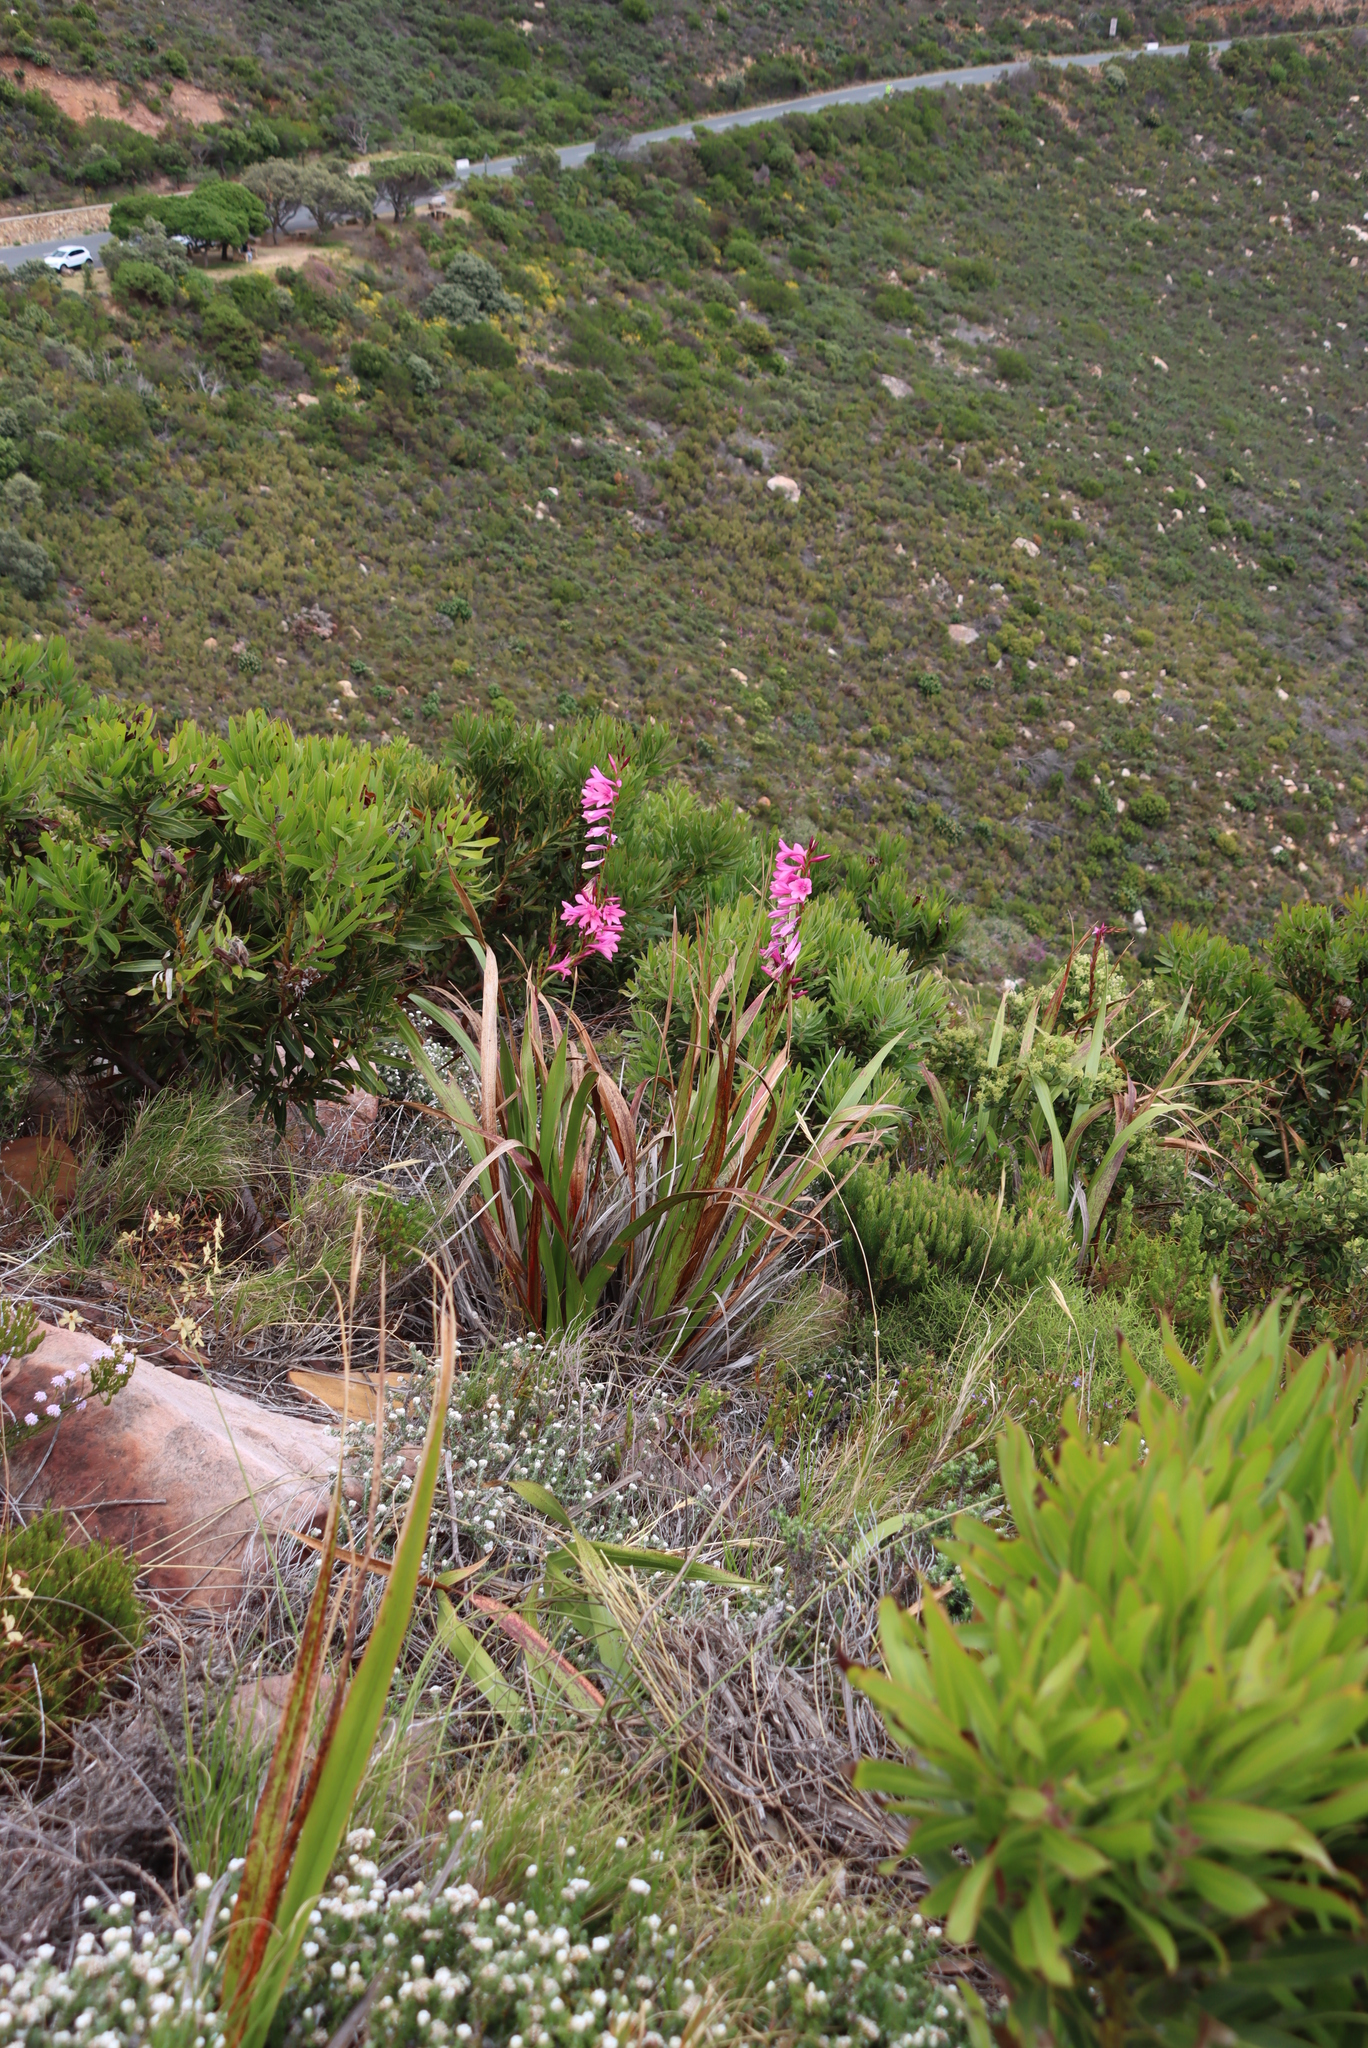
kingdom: Plantae
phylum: Tracheophyta
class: Liliopsida
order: Asparagales
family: Iridaceae
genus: Watsonia
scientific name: Watsonia borbonica
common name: Bugle-lily
